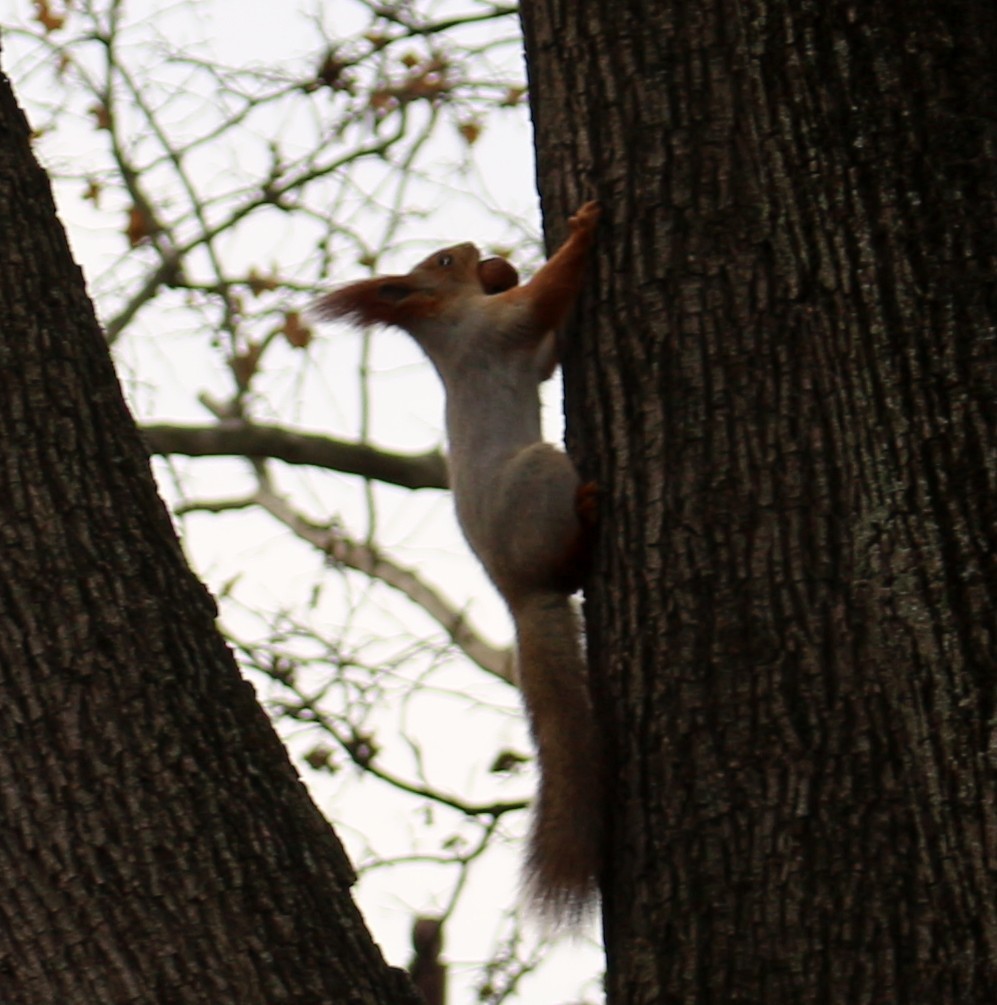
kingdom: Animalia
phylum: Chordata
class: Mammalia
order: Rodentia
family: Sciuridae
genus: Sciurus
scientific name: Sciurus vulgaris
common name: Eurasian red squirrel
